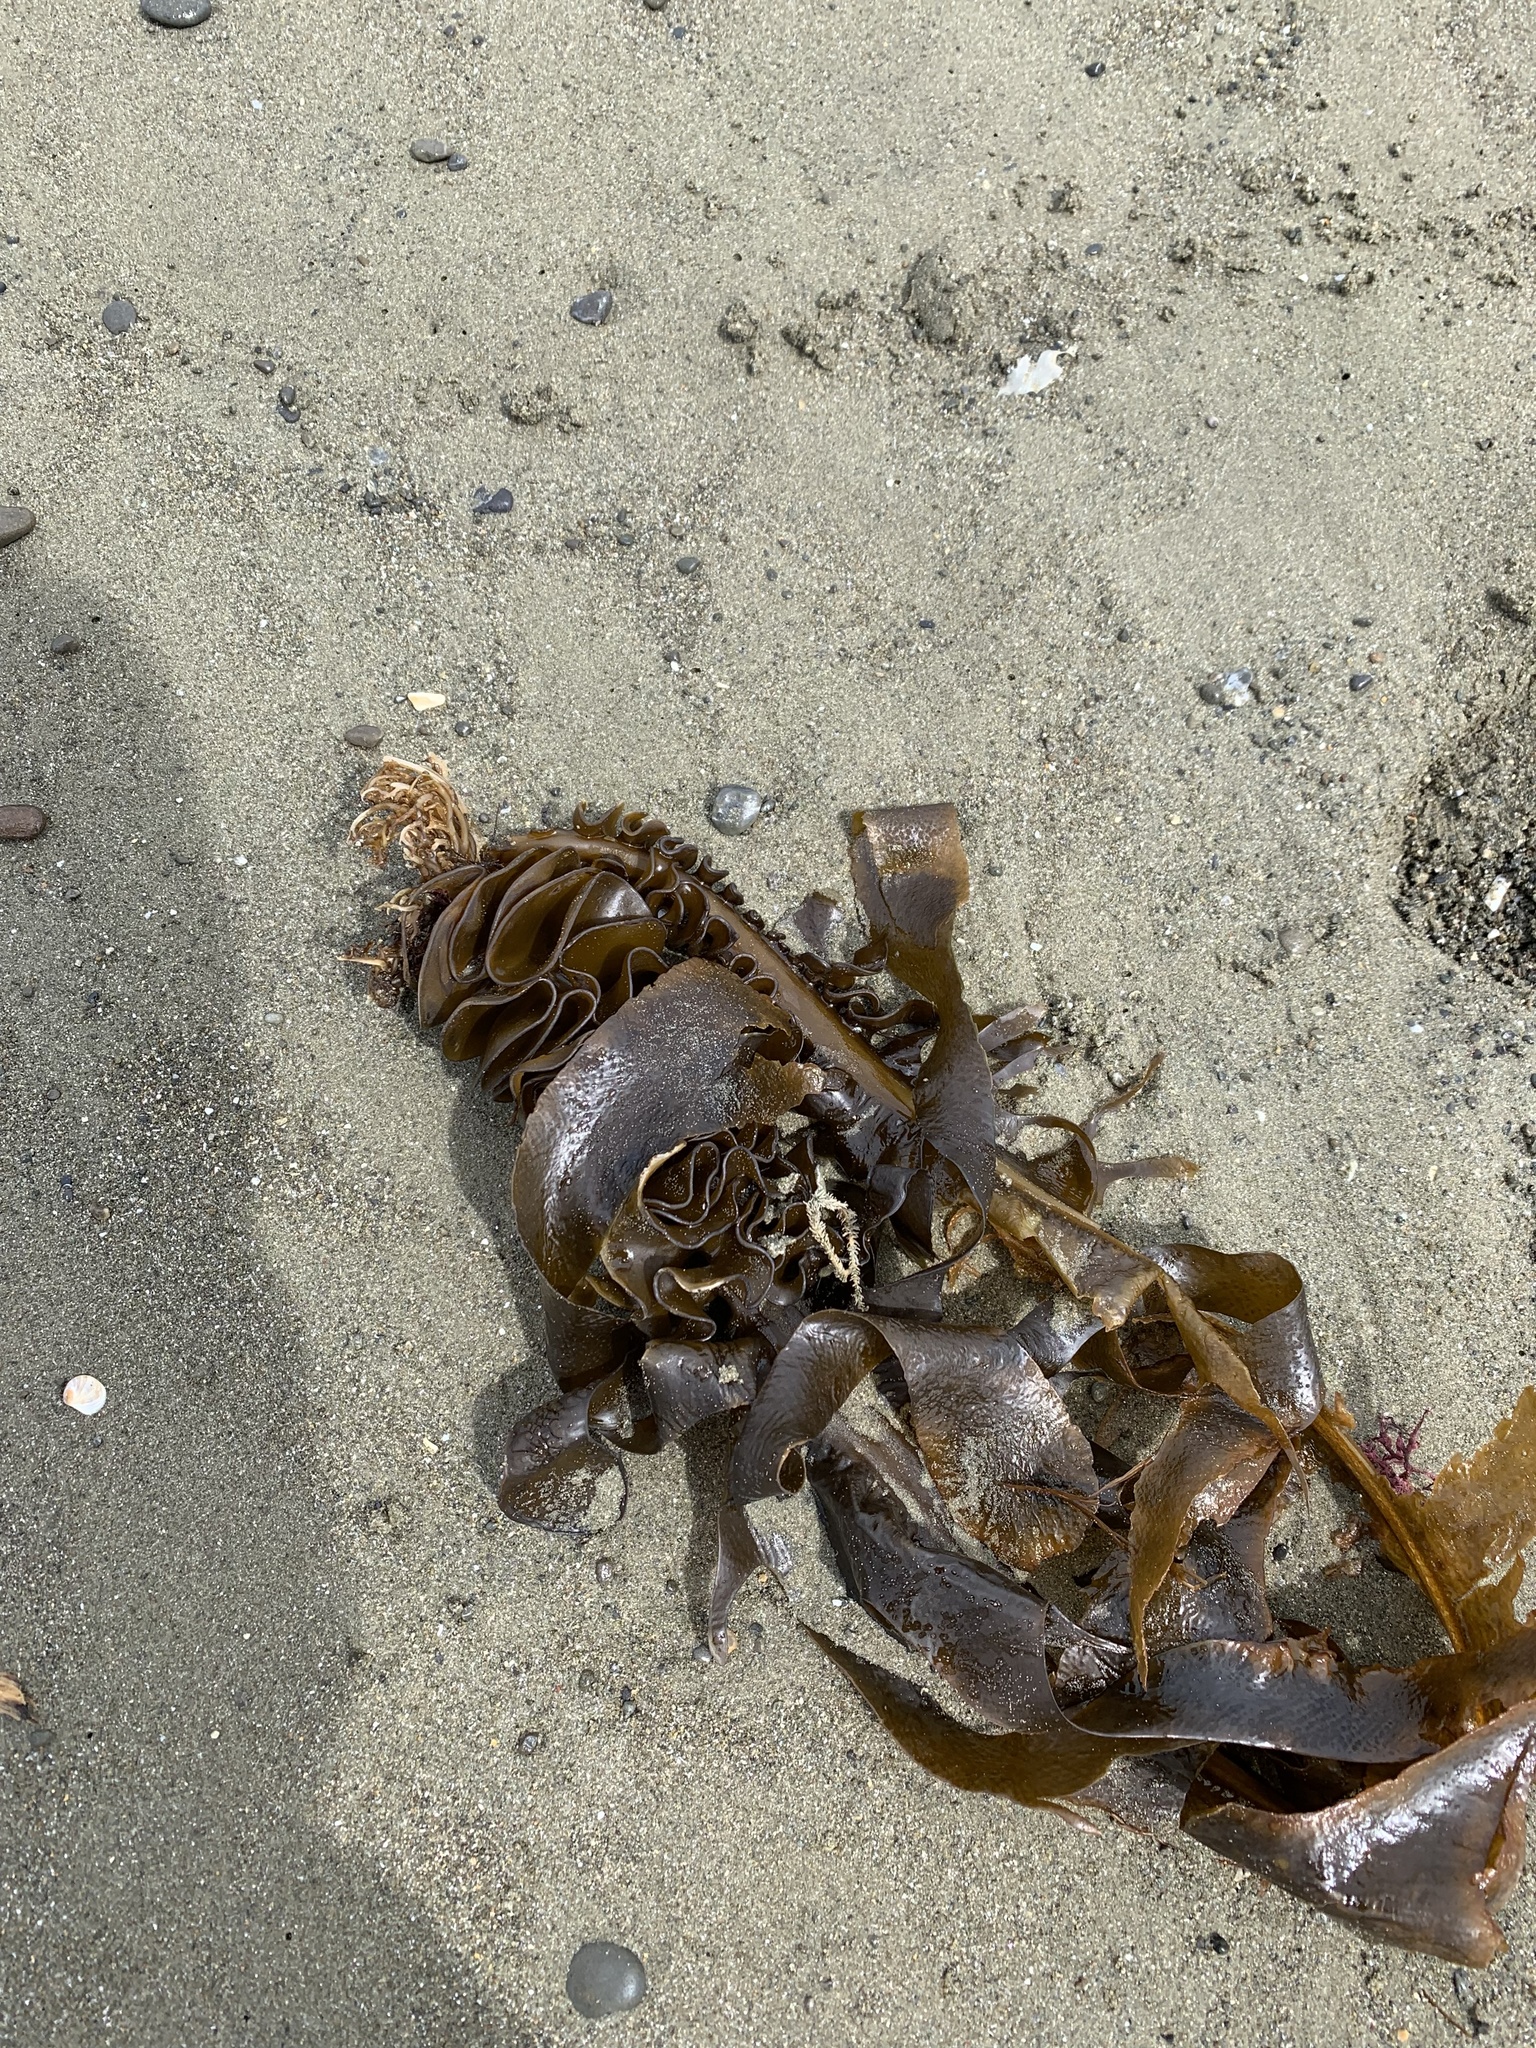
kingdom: Chromista
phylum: Ochrophyta
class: Phaeophyceae
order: Laminariales
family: Alariaceae
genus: Undaria
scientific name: Undaria pinnatifida
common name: Asian kelp
